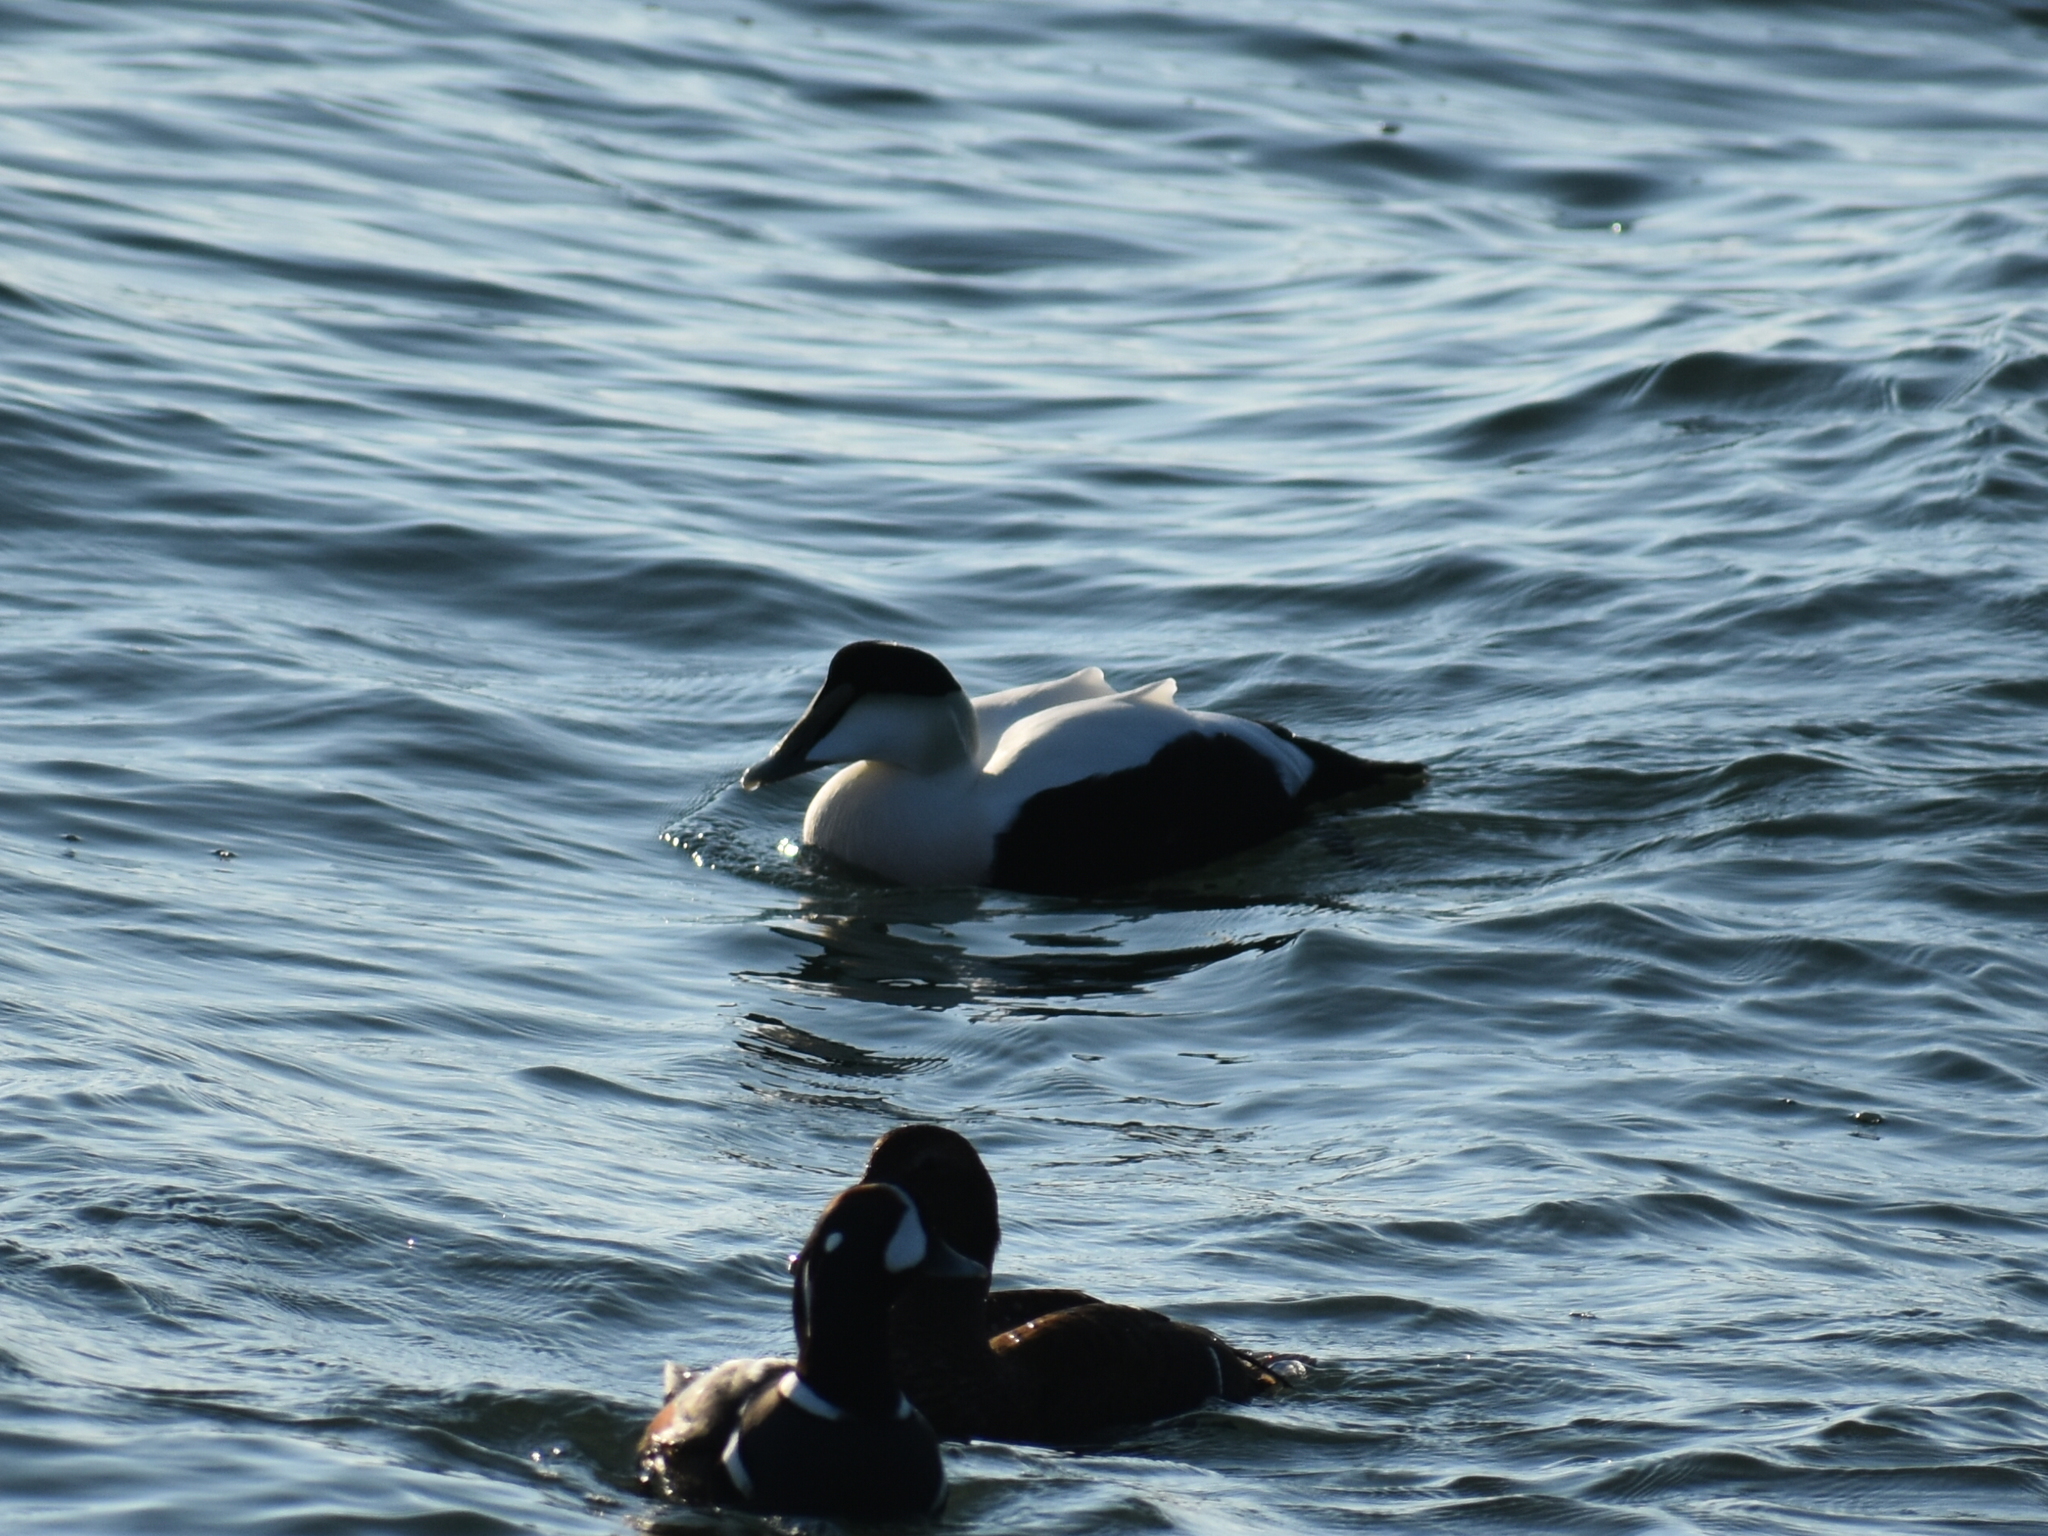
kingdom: Animalia
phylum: Chordata
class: Aves
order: Anseriformes
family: Anatidae
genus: Somateria
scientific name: Somateria mollissima
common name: Common eider
